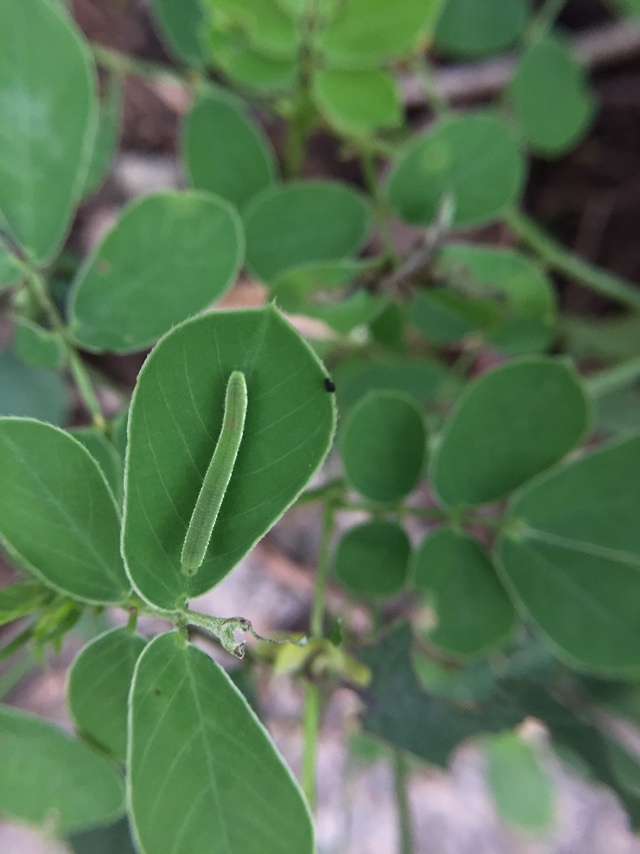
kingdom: Animalia
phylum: Arthropoda
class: Insecta
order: Lepidoptera
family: Pieridae
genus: Eurema
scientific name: Eurema hecabe
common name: Pale grass yellow
